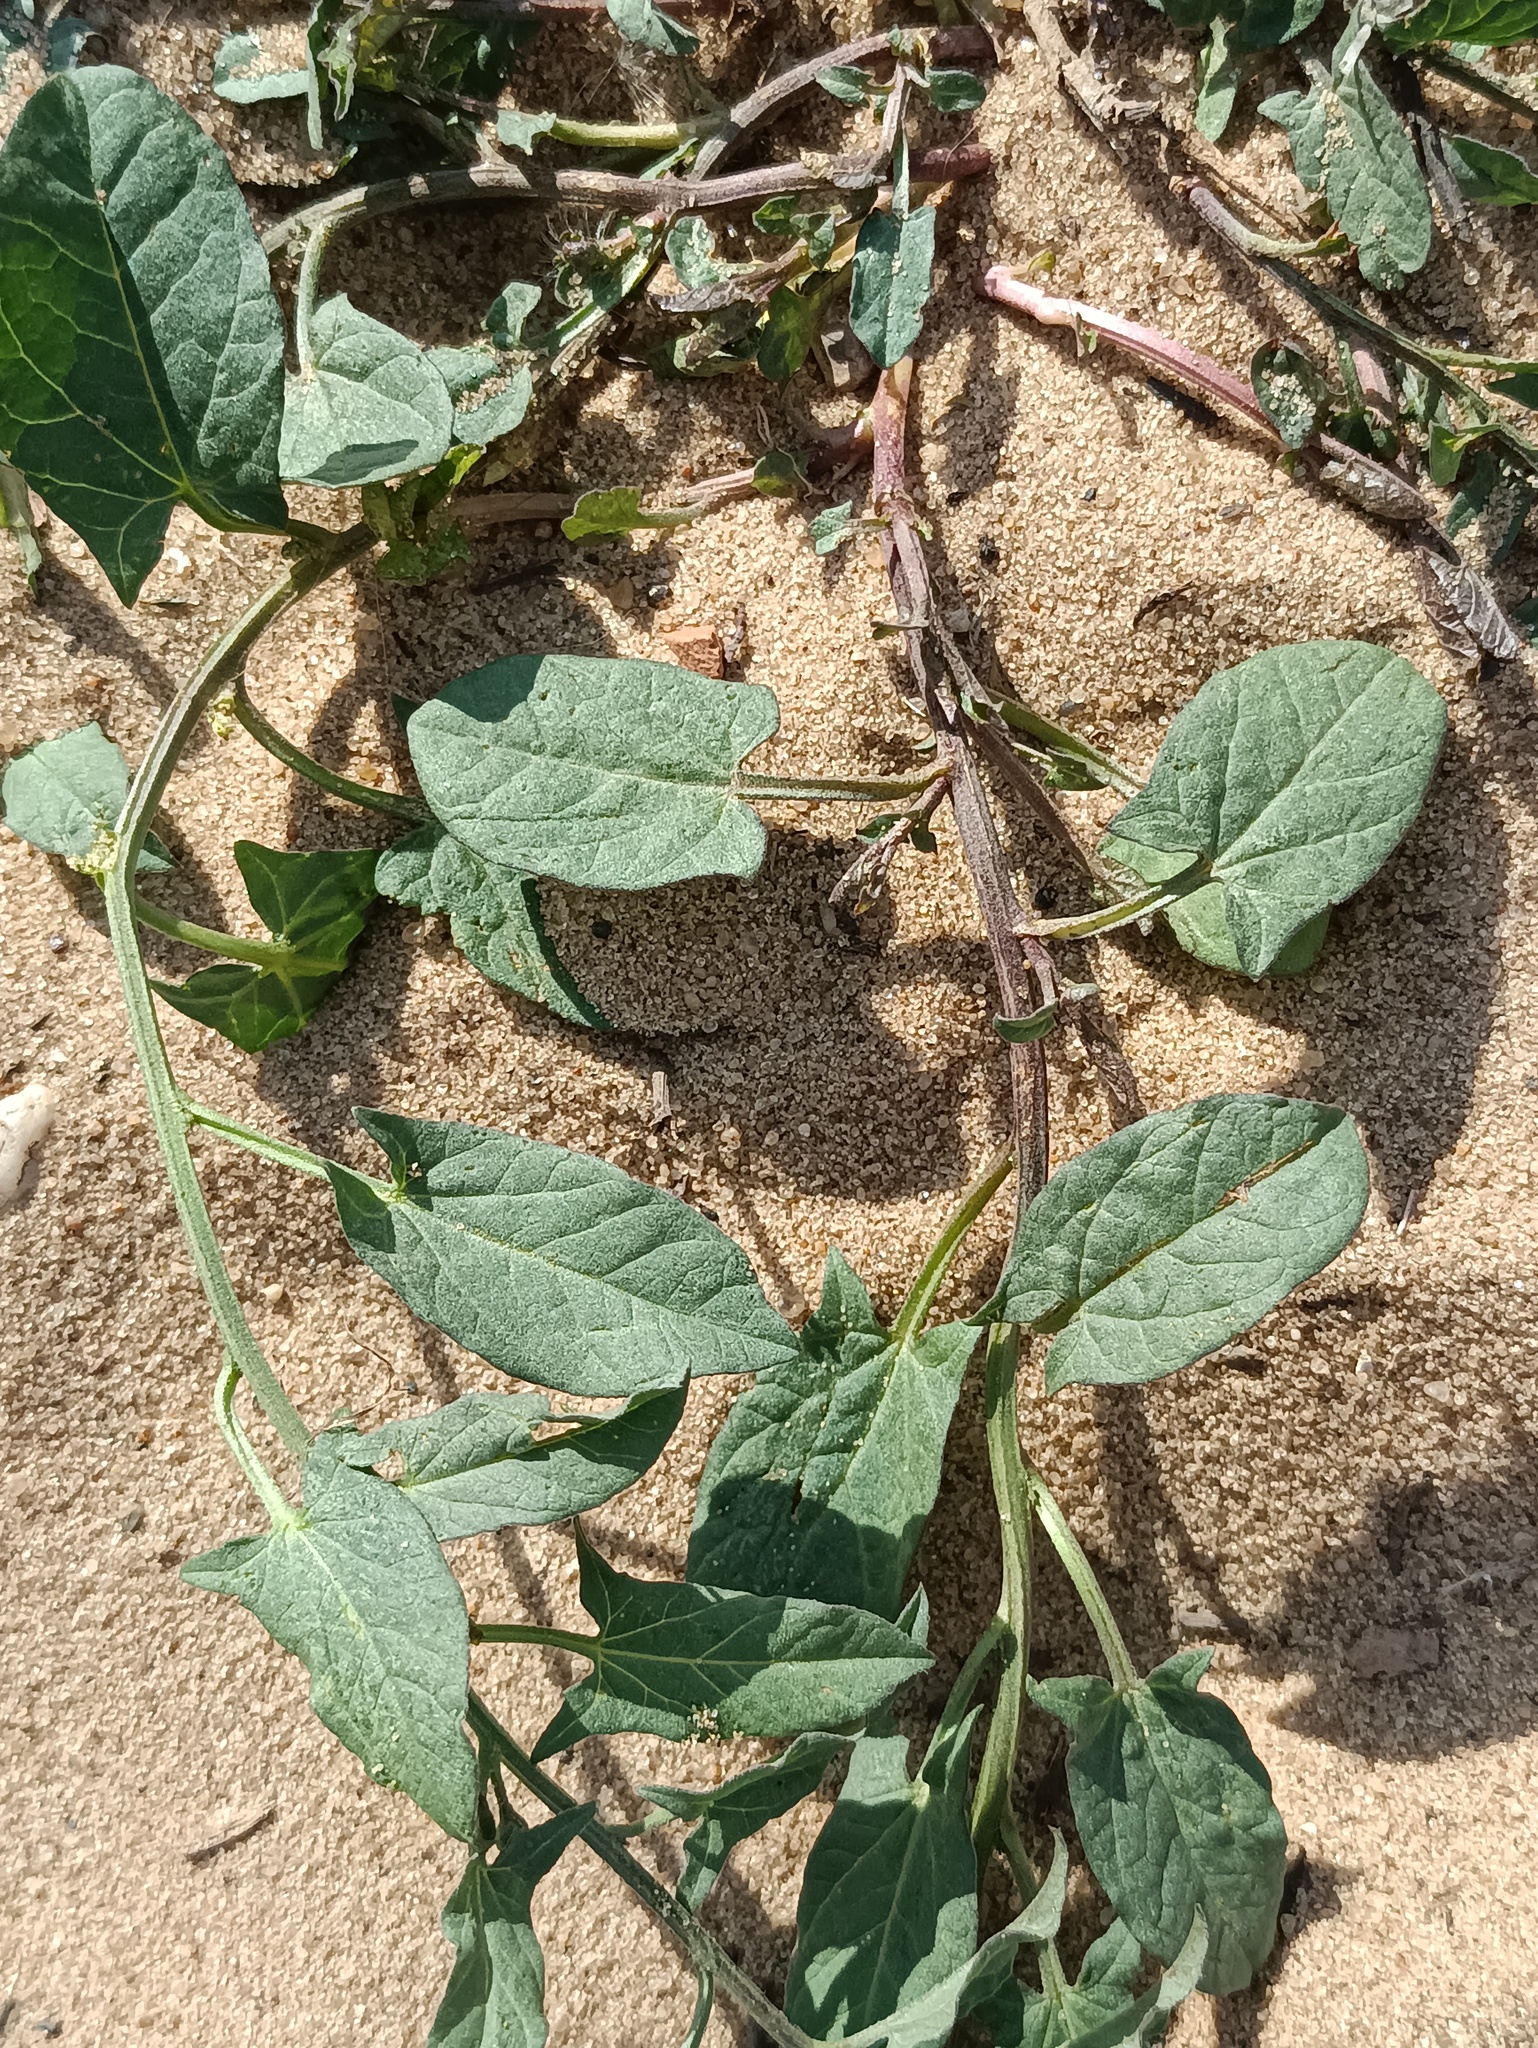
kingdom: Plantae
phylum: Tracheophyta
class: Magnoliopsida
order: Solanales
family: Convolvulaceae
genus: Convolvulus
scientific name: Convolvulus arvensis
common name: Field bindweed
